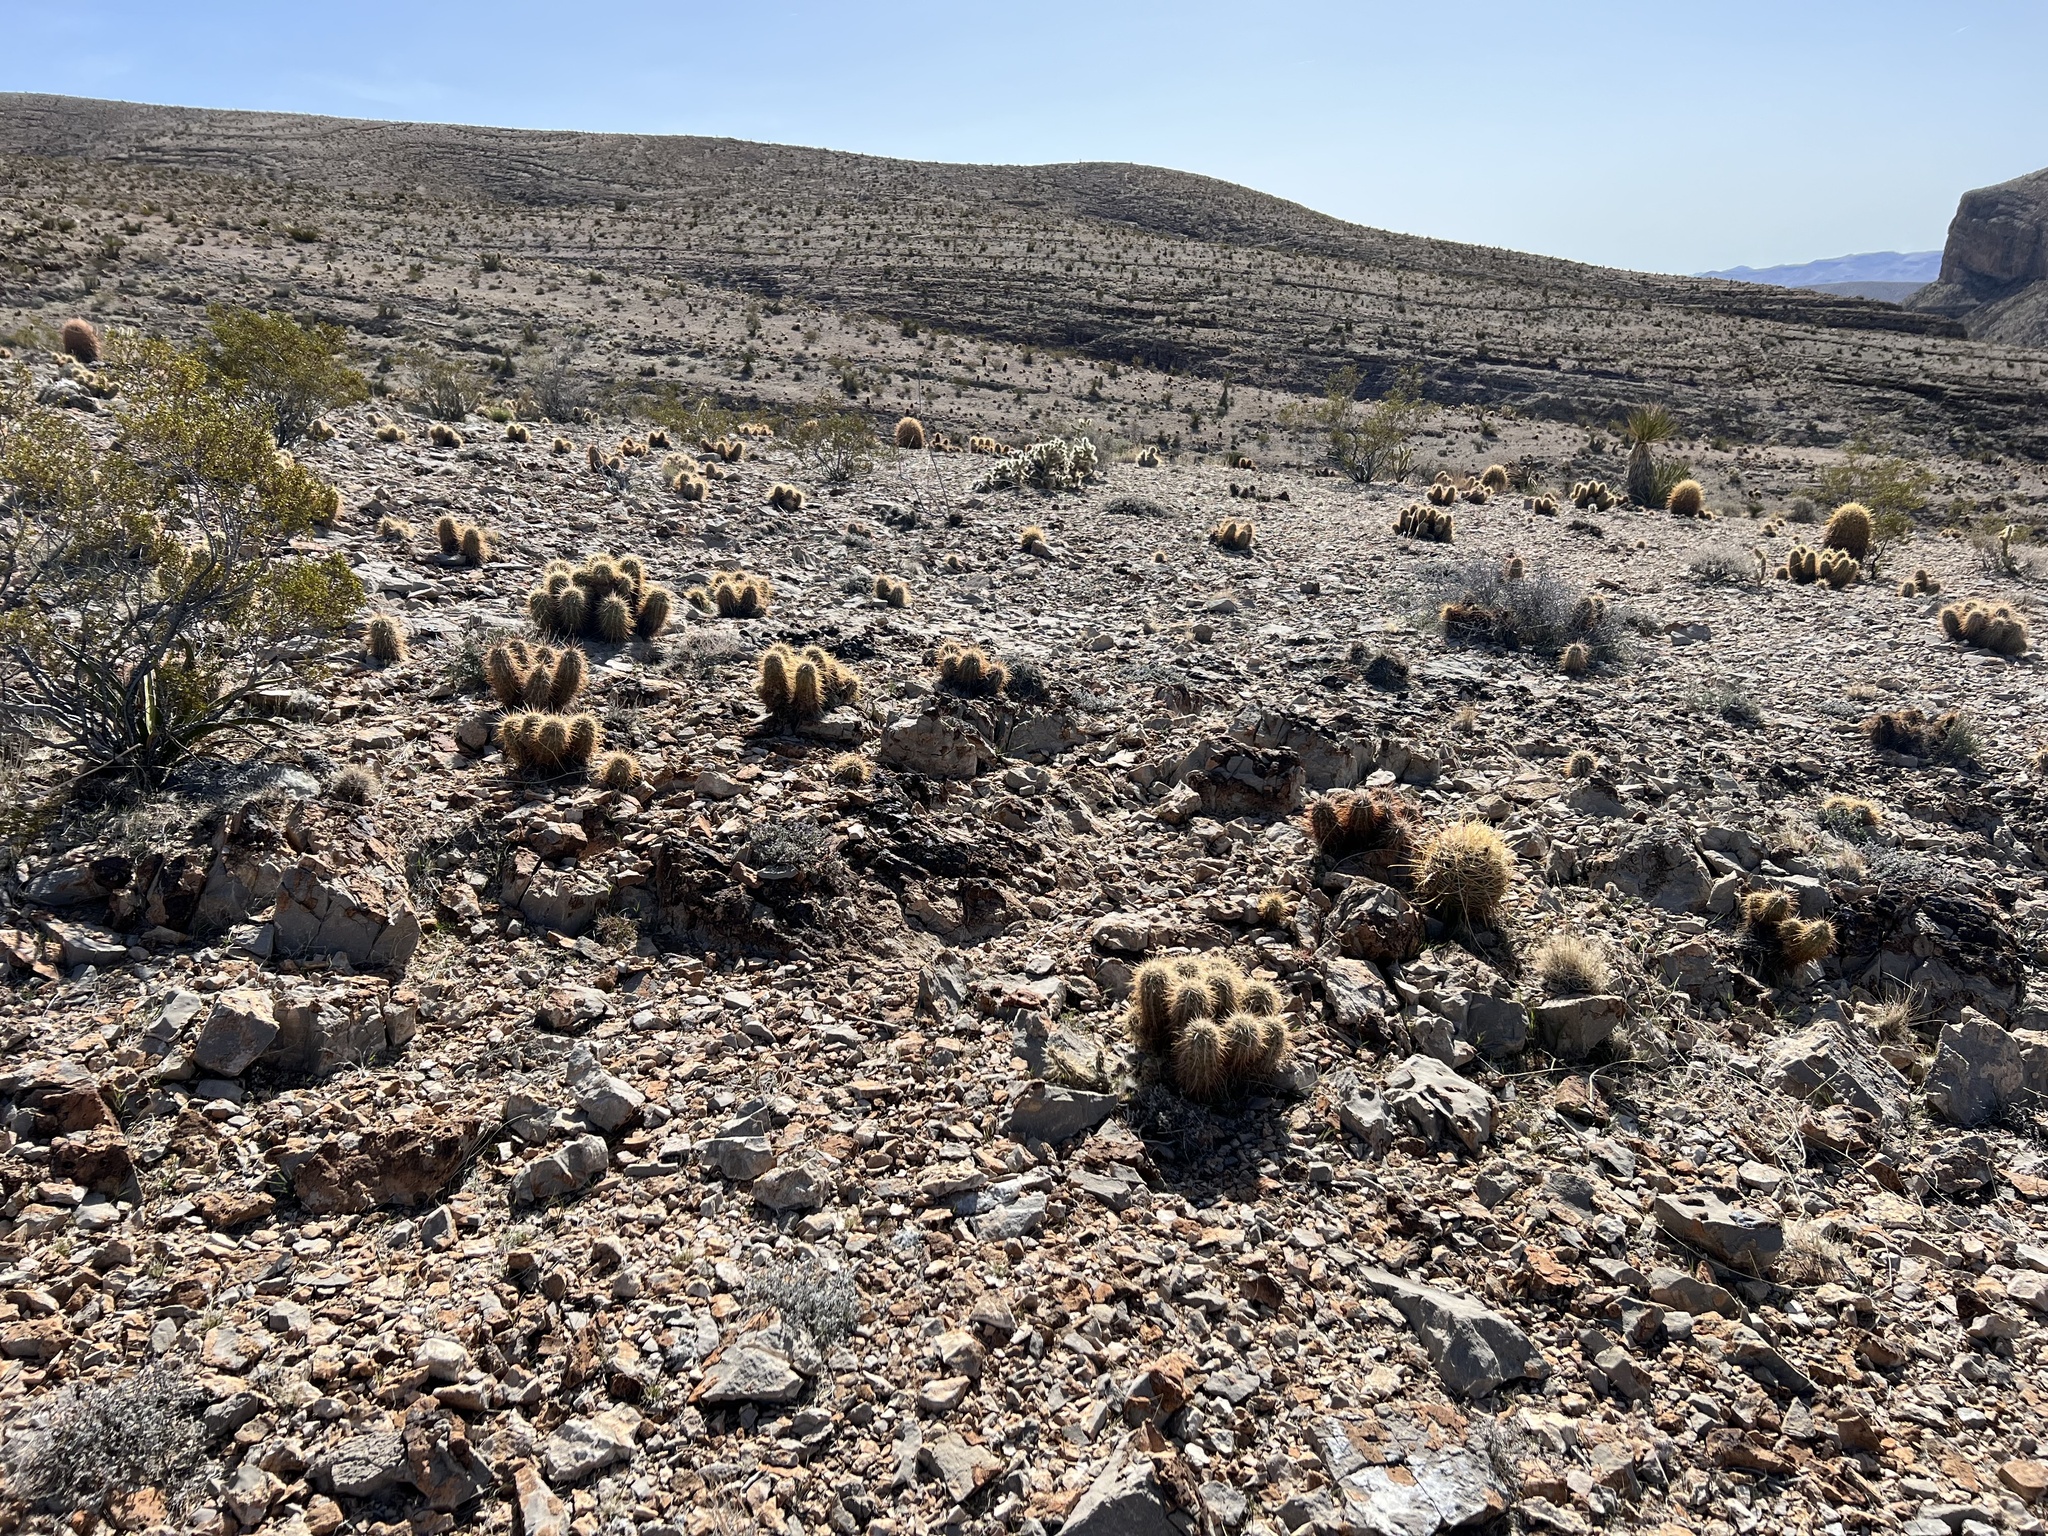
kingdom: Plantae
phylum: Tracheophyta
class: Magnoliopsida
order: Caryophyllales
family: Cactaceae
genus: Echinocereus
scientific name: Echinocereus engelmannii
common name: Engelmann's hedgehog cactus
